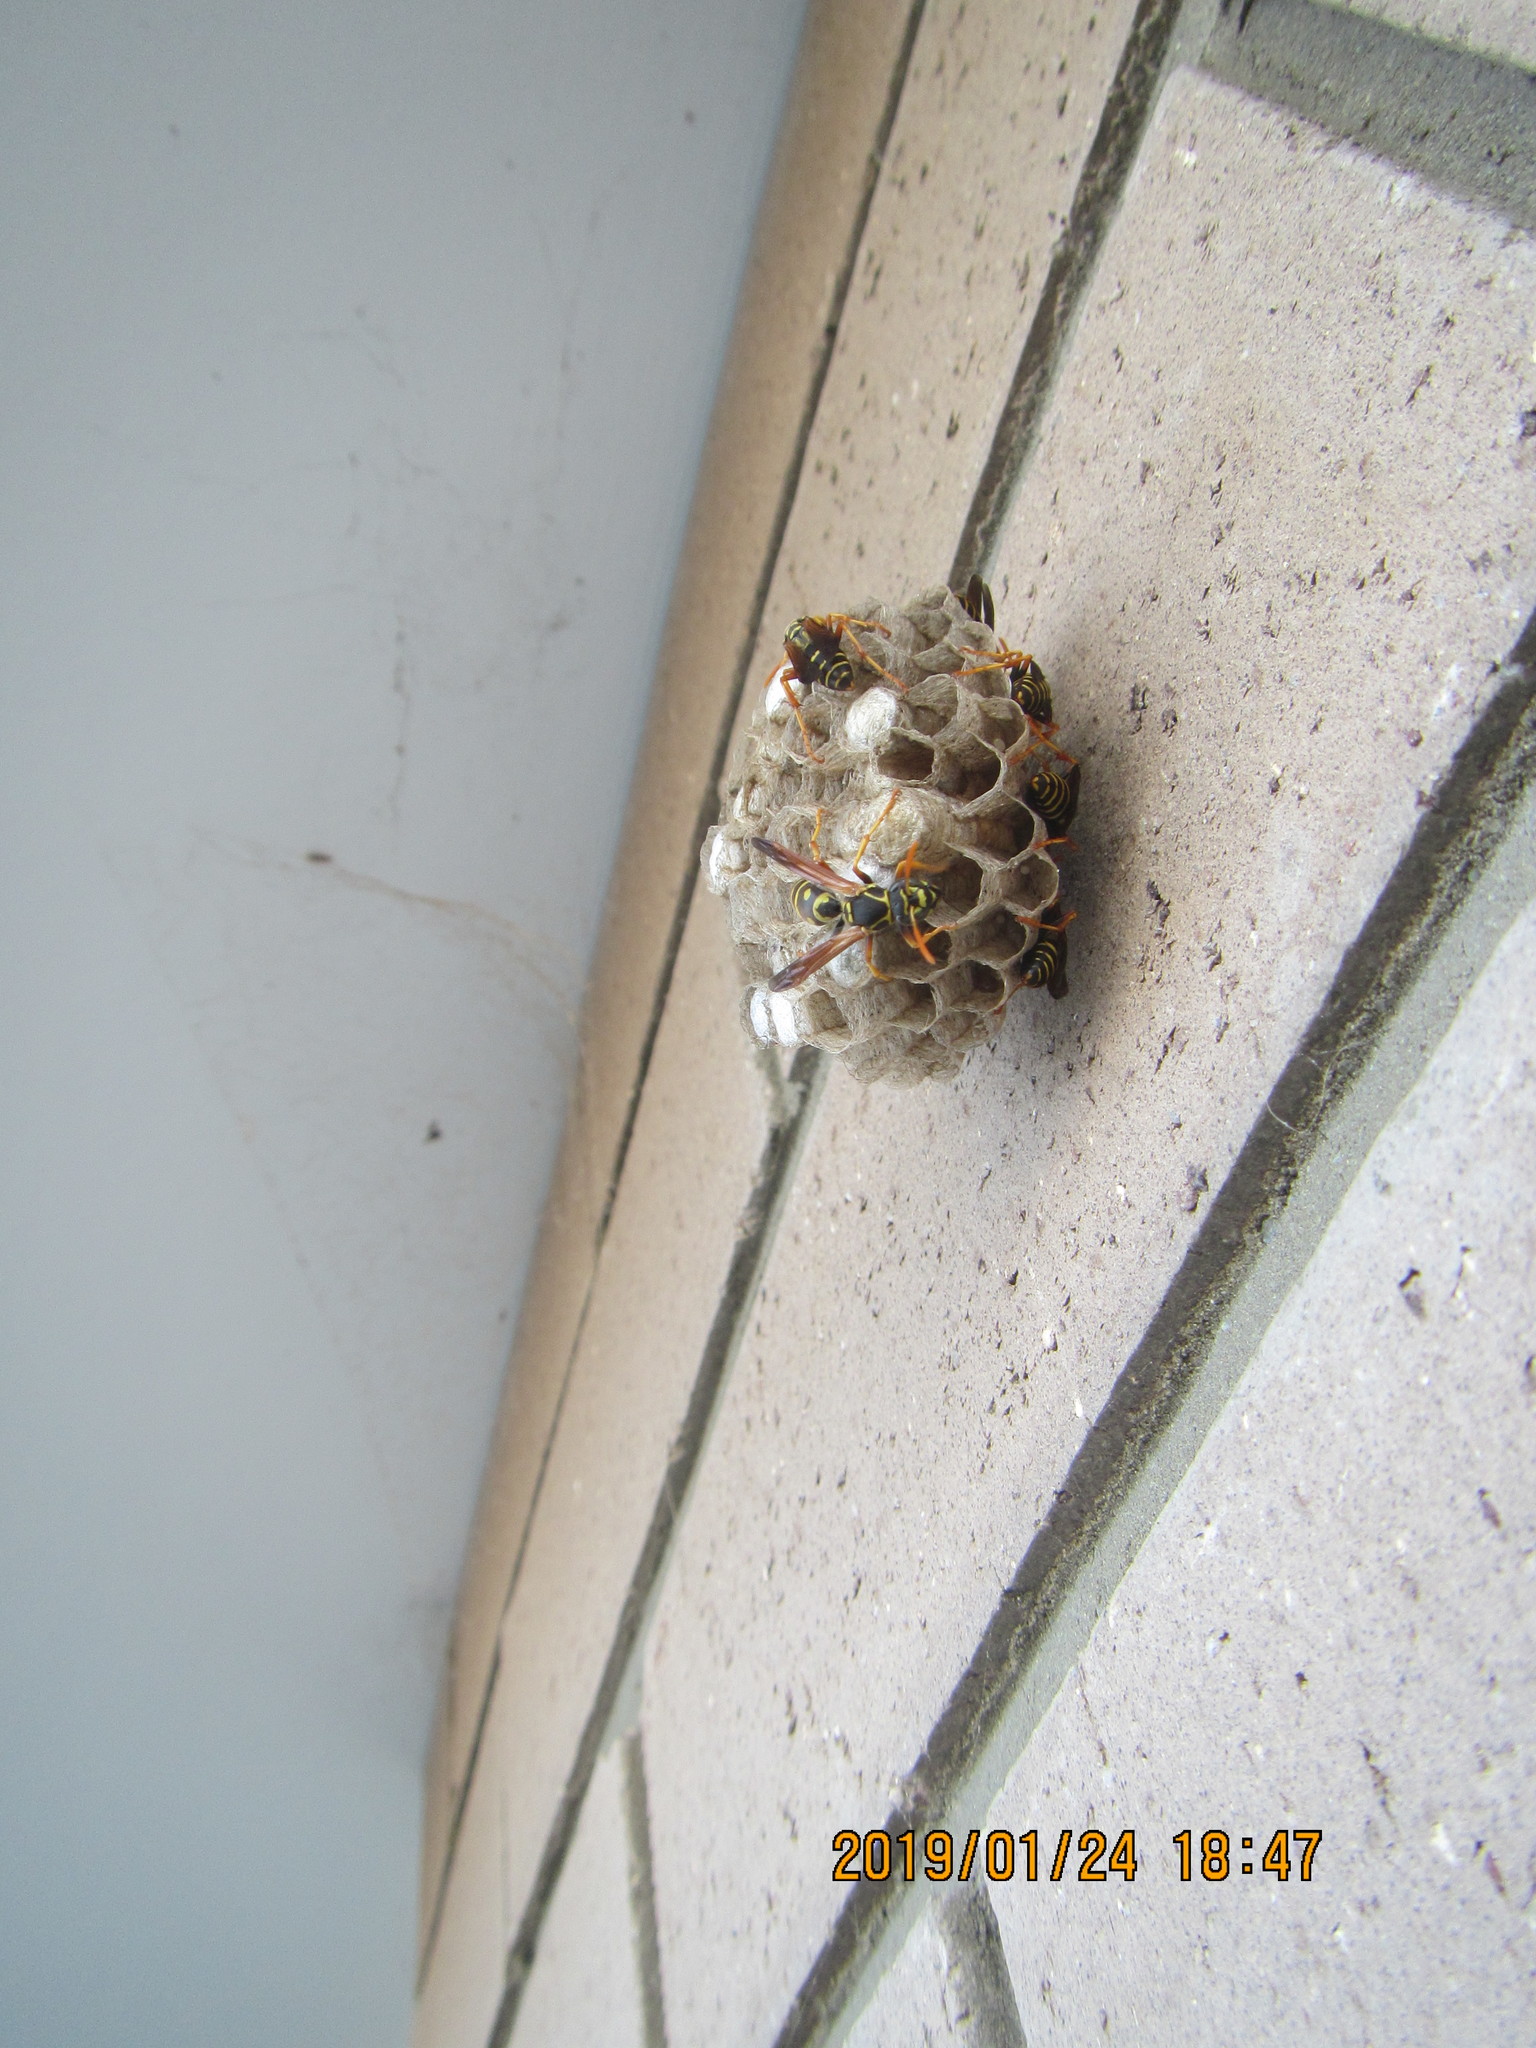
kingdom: Animalia
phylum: Arthropoda
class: Insecta
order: Hymenoptera
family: Eumenidae
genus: Polistes
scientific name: Polistes chinensis
